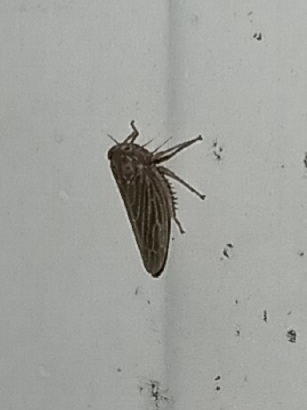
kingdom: Animalia
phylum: Arthropoda
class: Insecta
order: Hemiptera
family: Cicadellidae
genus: Agallia
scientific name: Agallia constricta
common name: The constricted leafhopper
